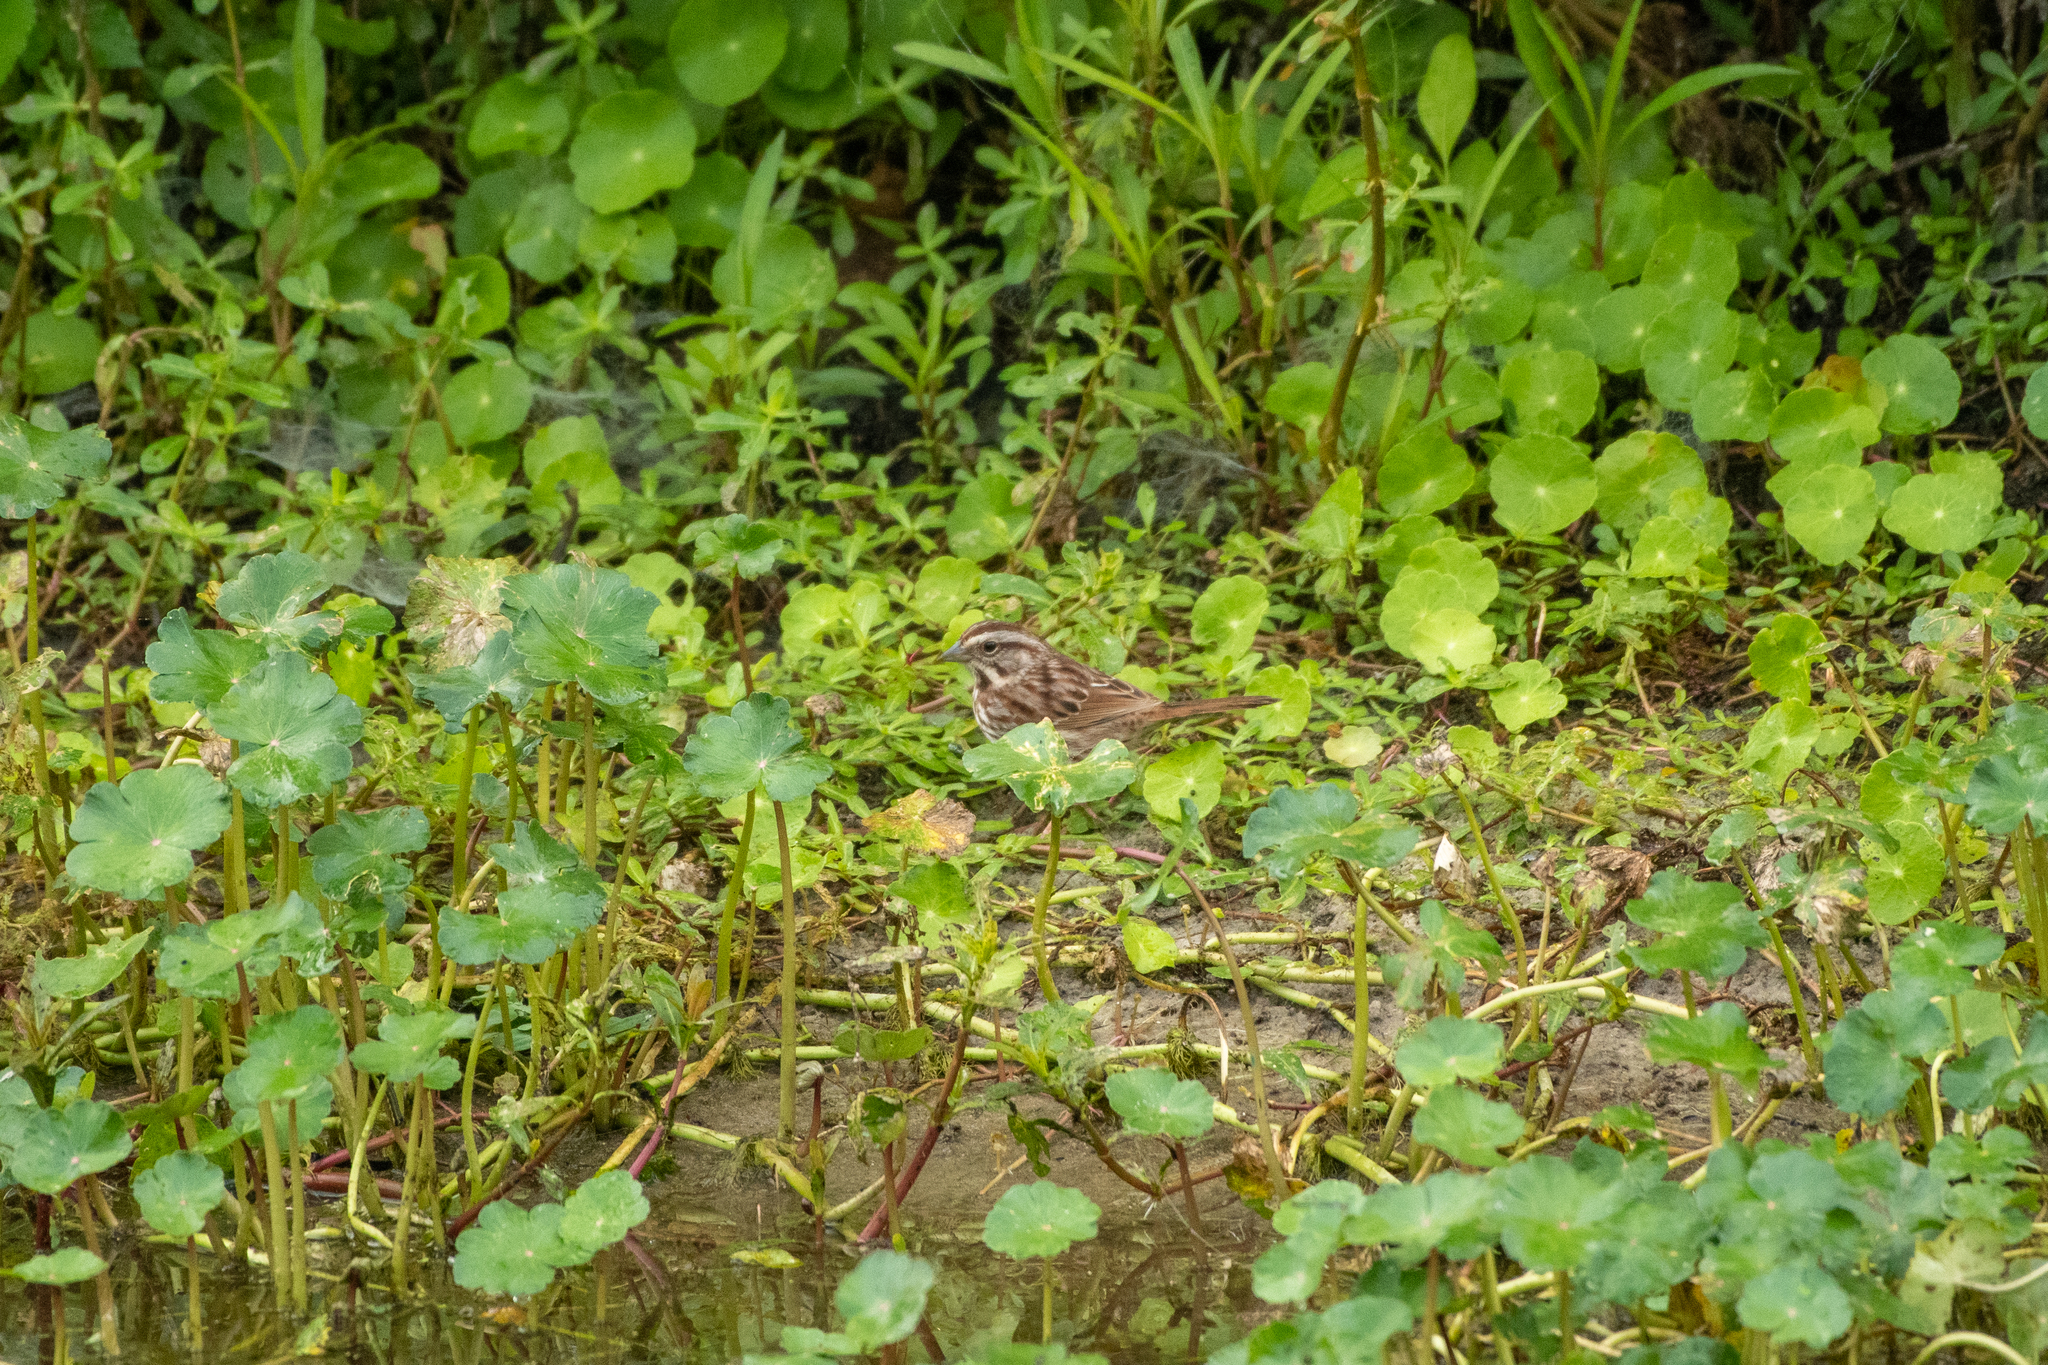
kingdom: Animalia
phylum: Chordata
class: Aves
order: Passeriformes
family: Passerellidae
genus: Melospiza
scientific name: Melospiza melodia
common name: Song sparrow
